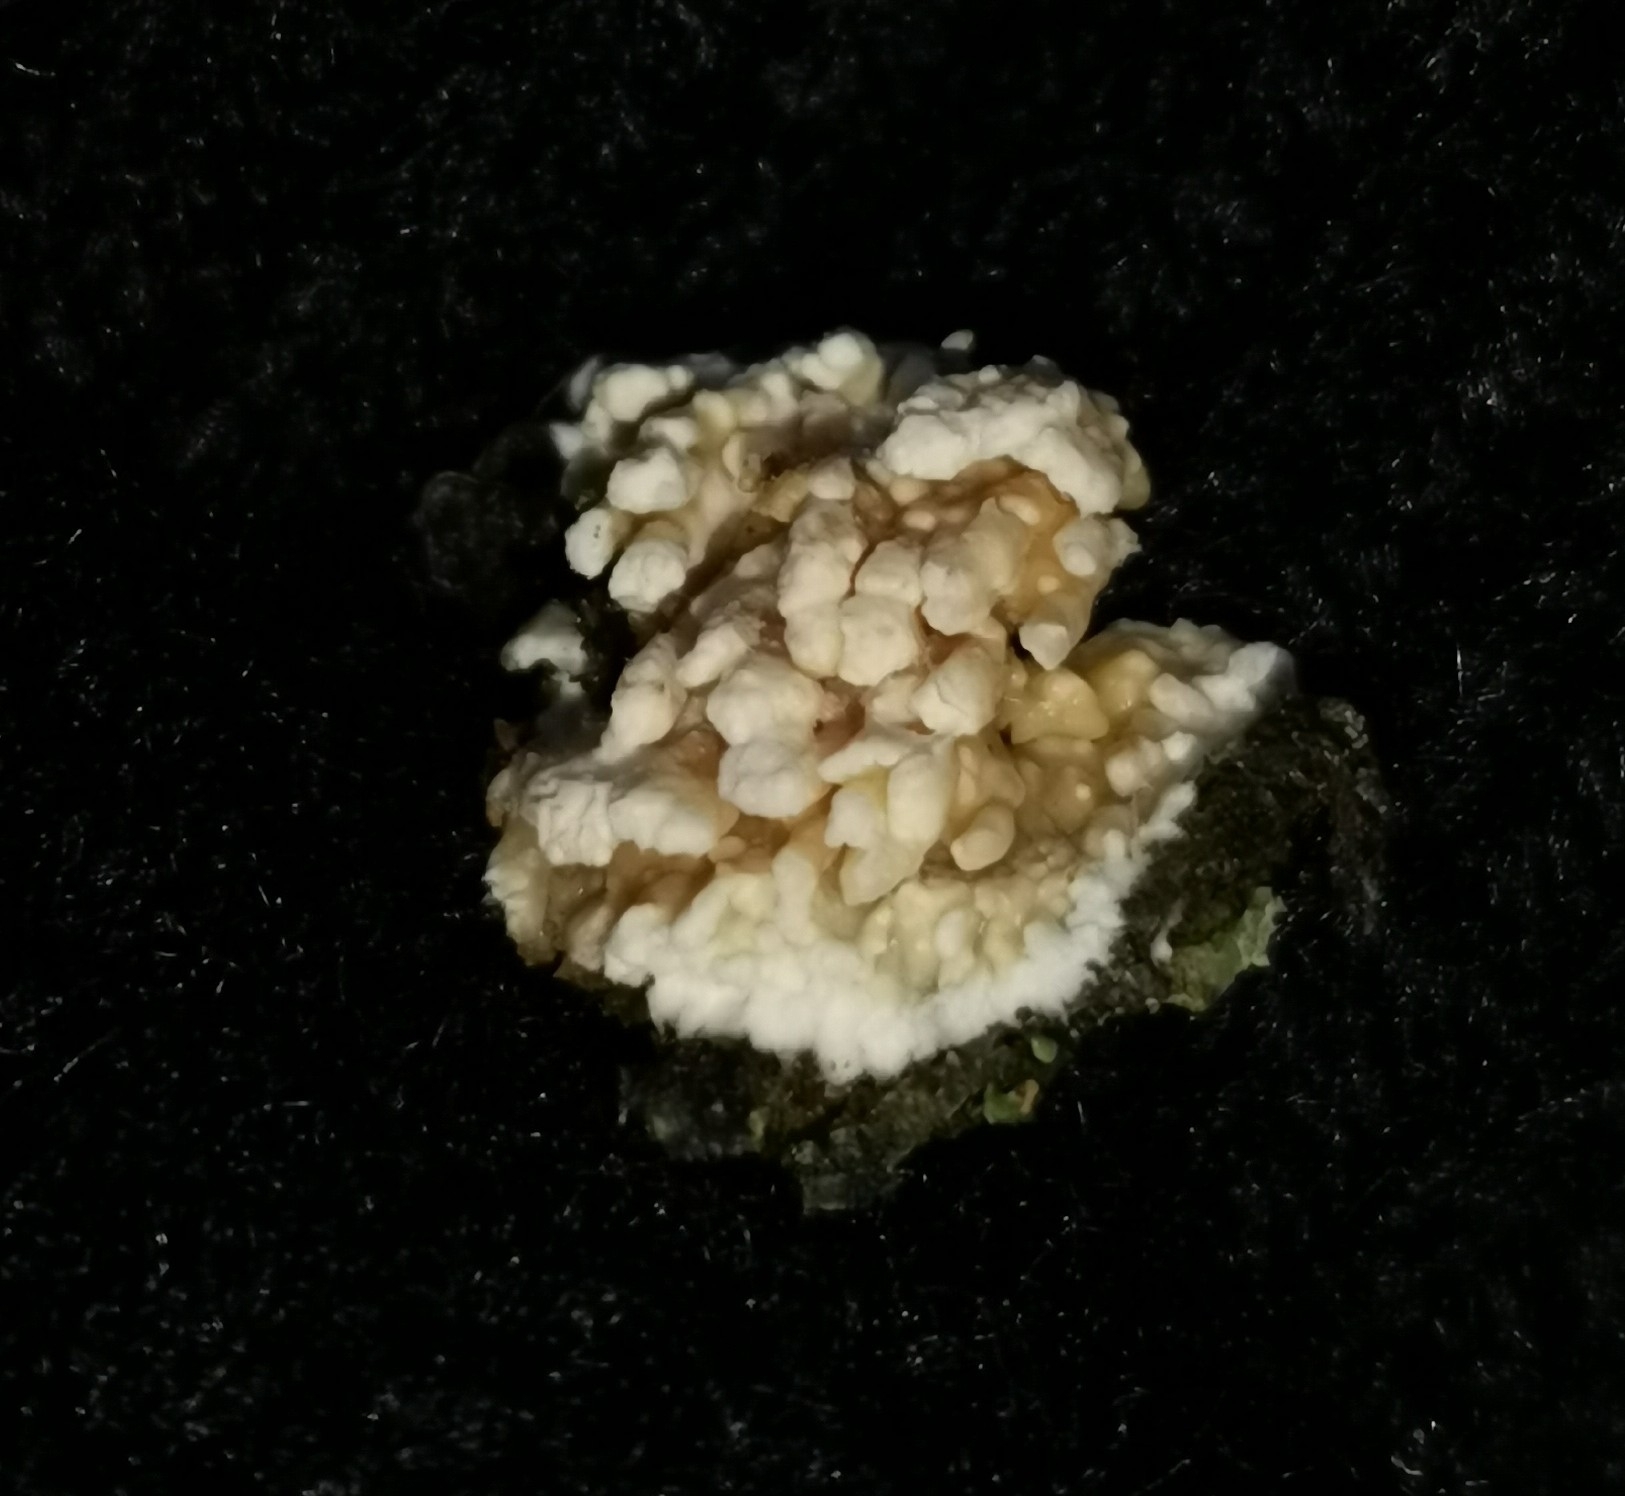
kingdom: Fungi
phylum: Basidiomycota
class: Agaricomycetes
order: Hymenochaetales
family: Schizoporaceae
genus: Xylodon
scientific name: Xylodon radula
